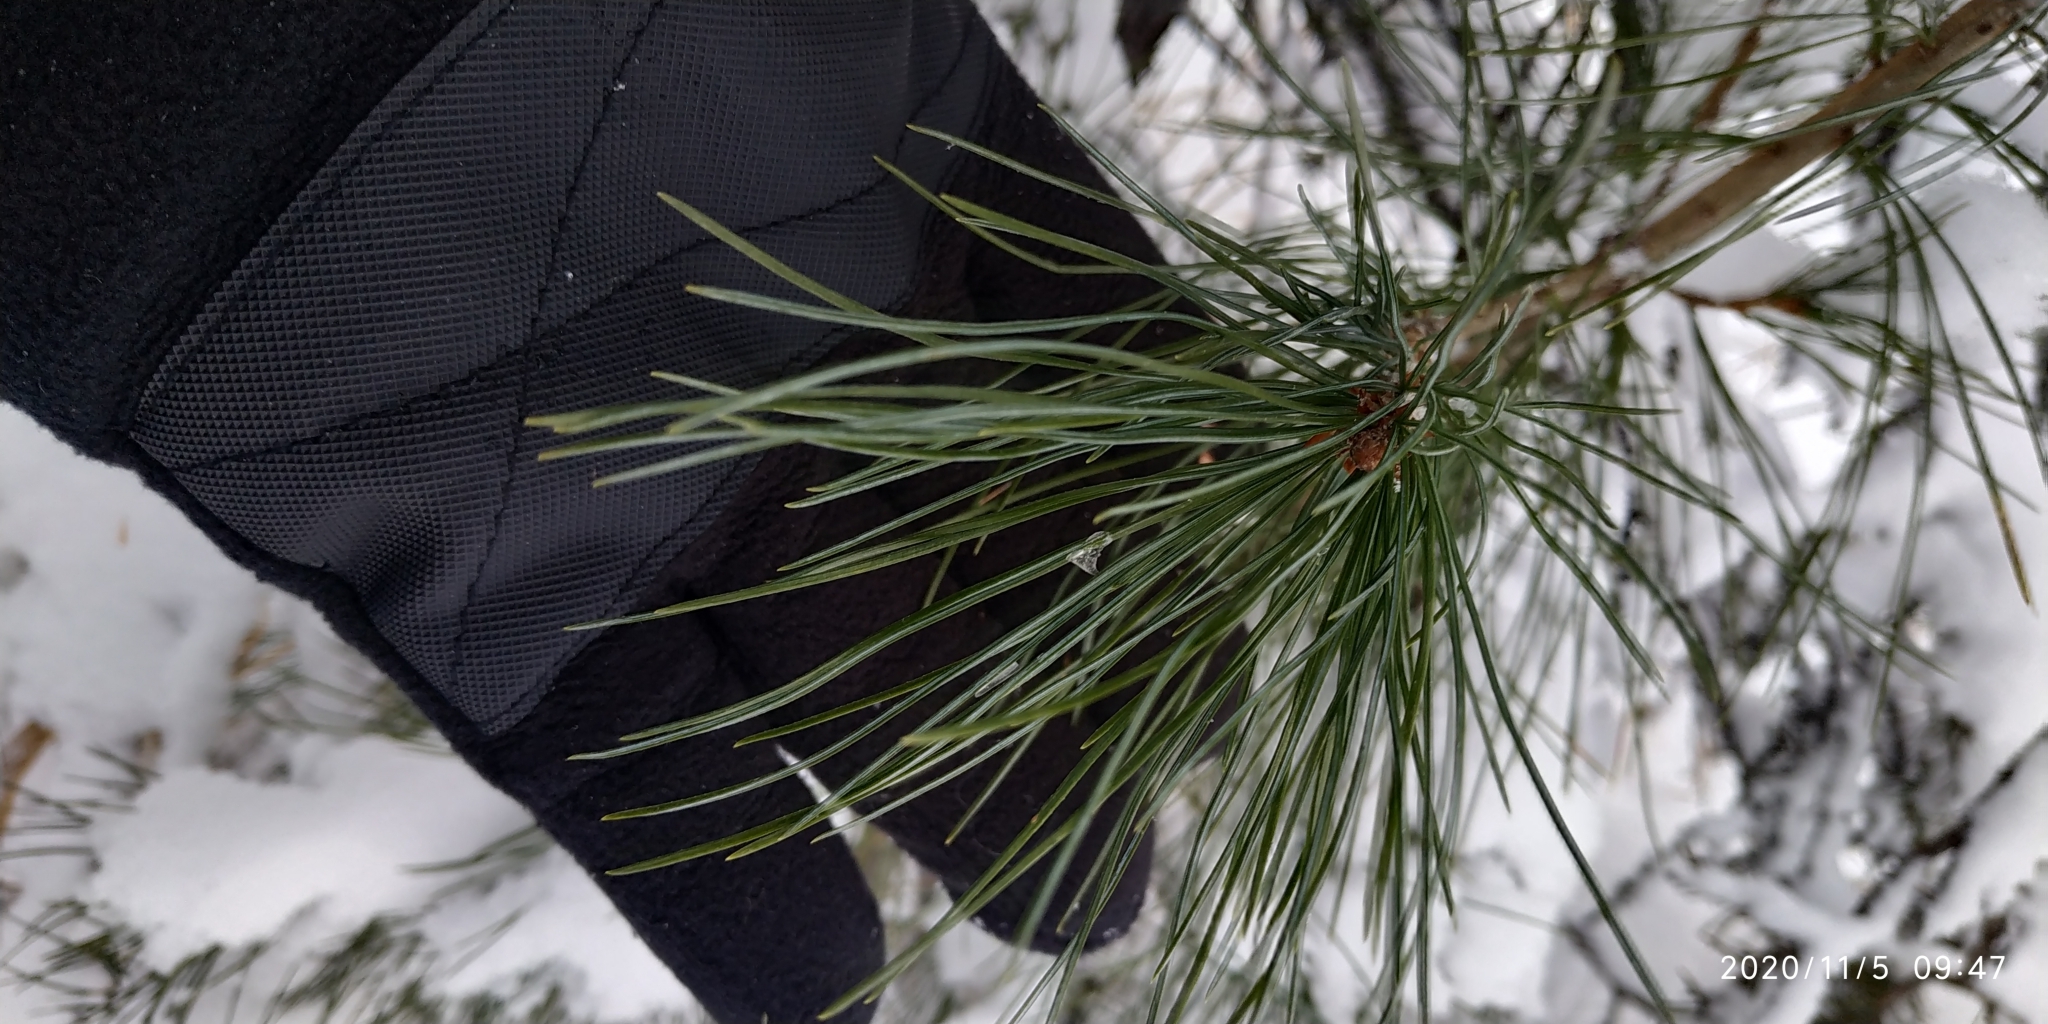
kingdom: Plantae
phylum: Tracheophyta
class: Pinopsida
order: Pinales
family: Pinaceae
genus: Pinus
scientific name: Pinus sibirica
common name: Siberian pine
